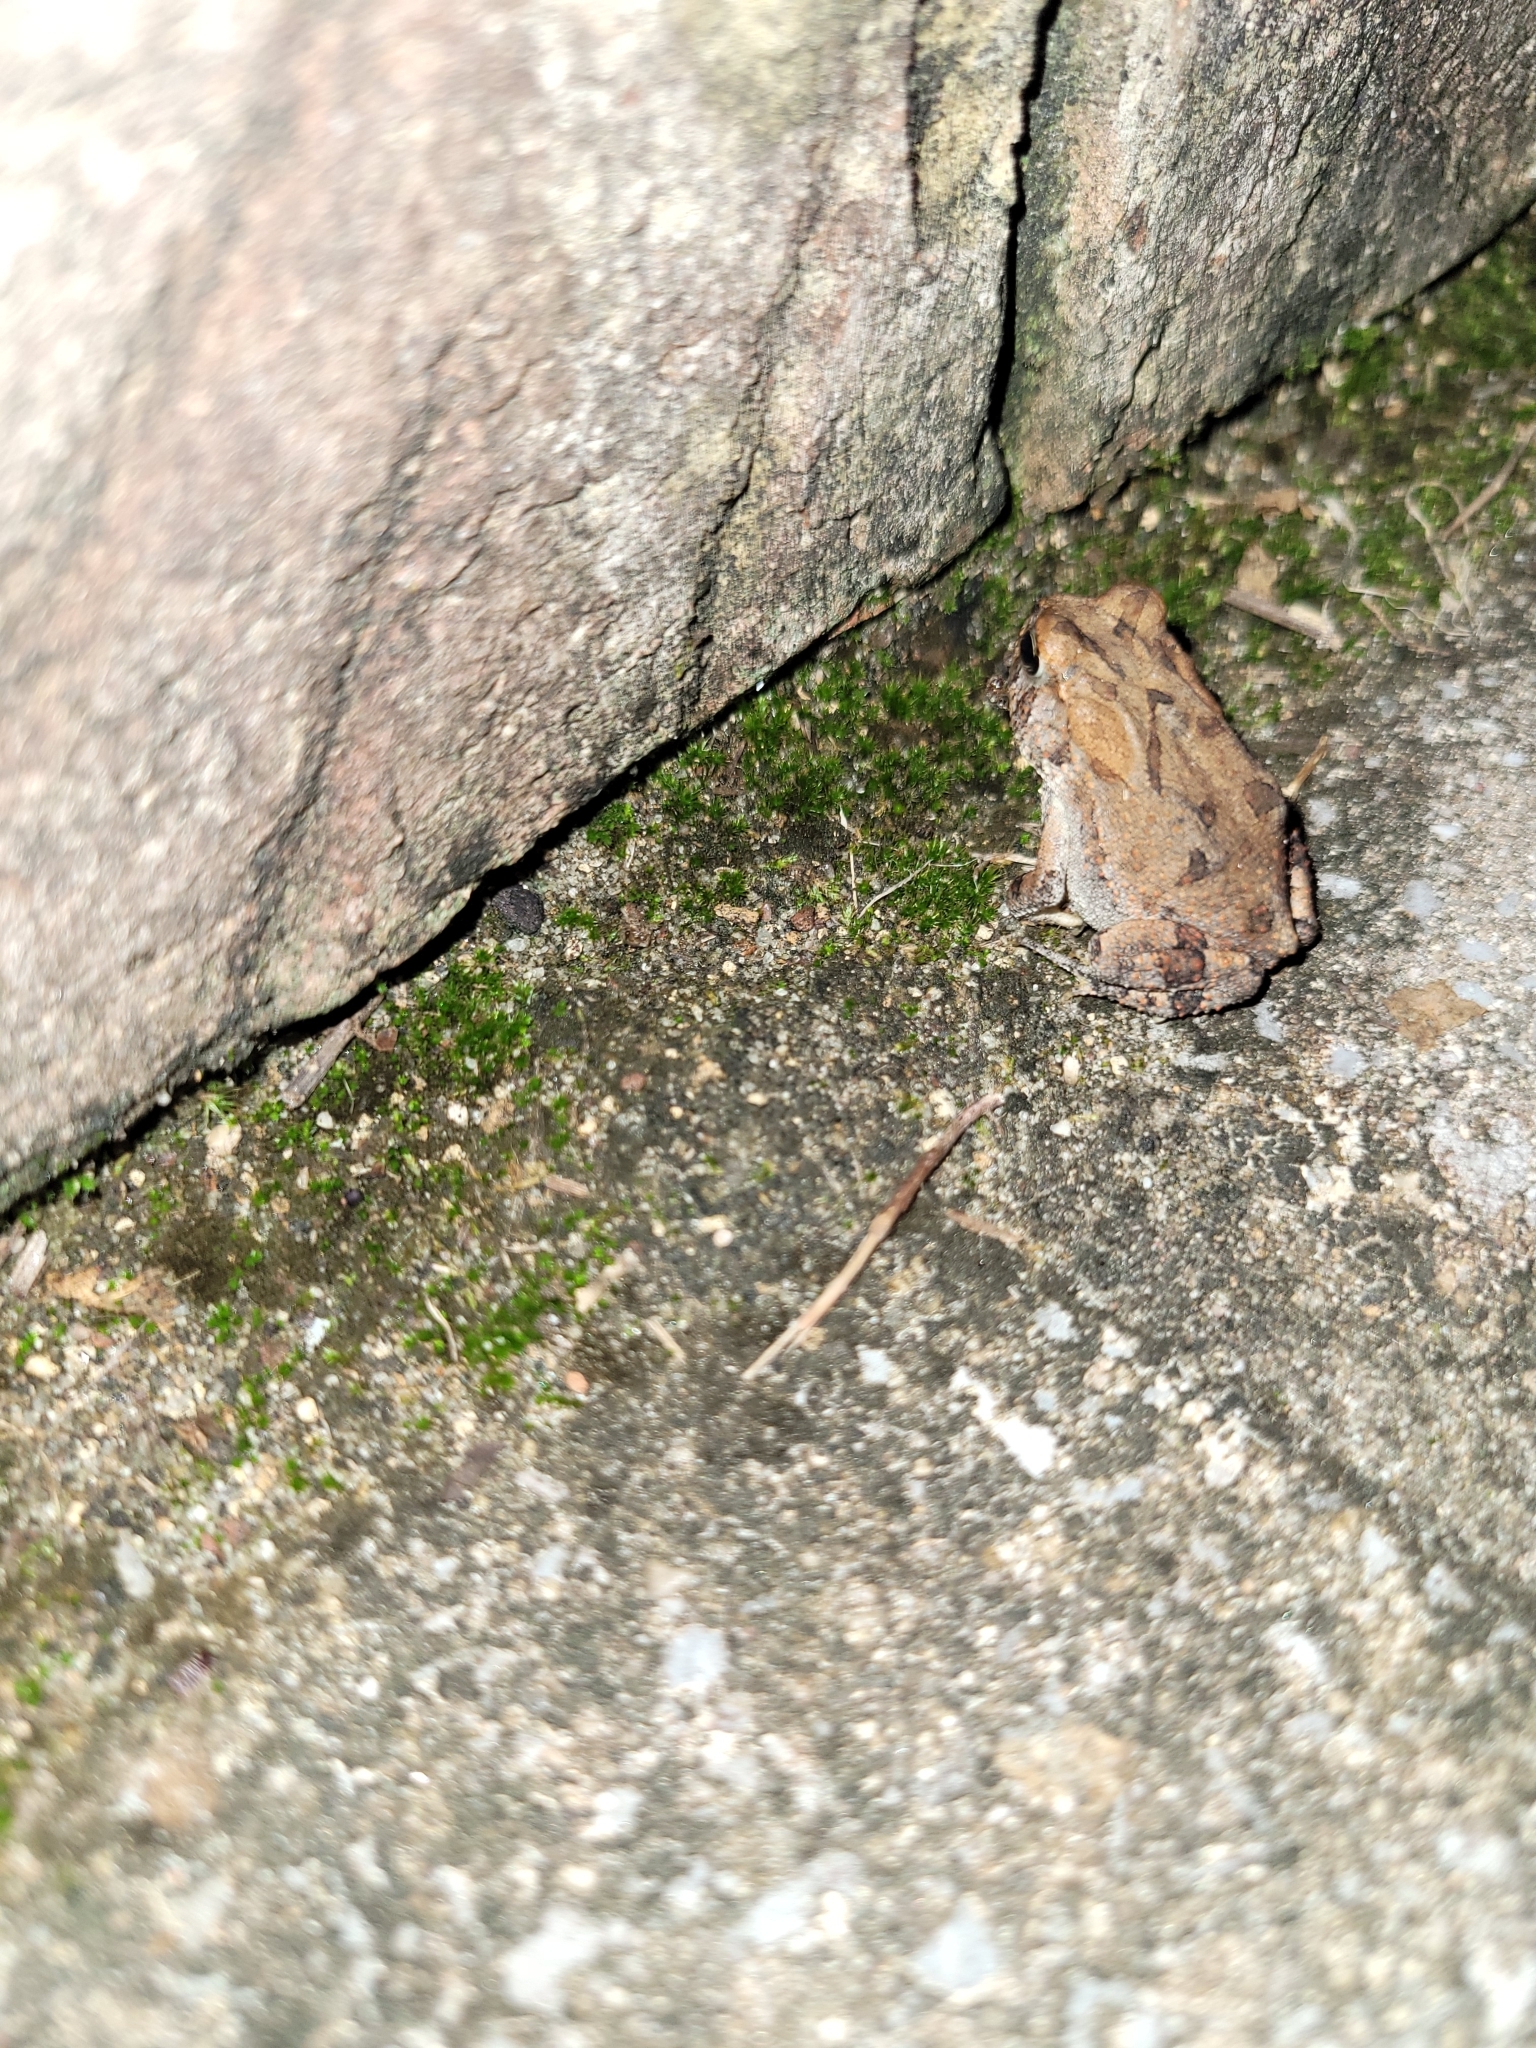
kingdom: Animalia
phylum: Chordata
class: Amphibia
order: Anura
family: Bufonidae
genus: Anaxyrus
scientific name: Anaxyrus terrestris
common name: Southern toad
